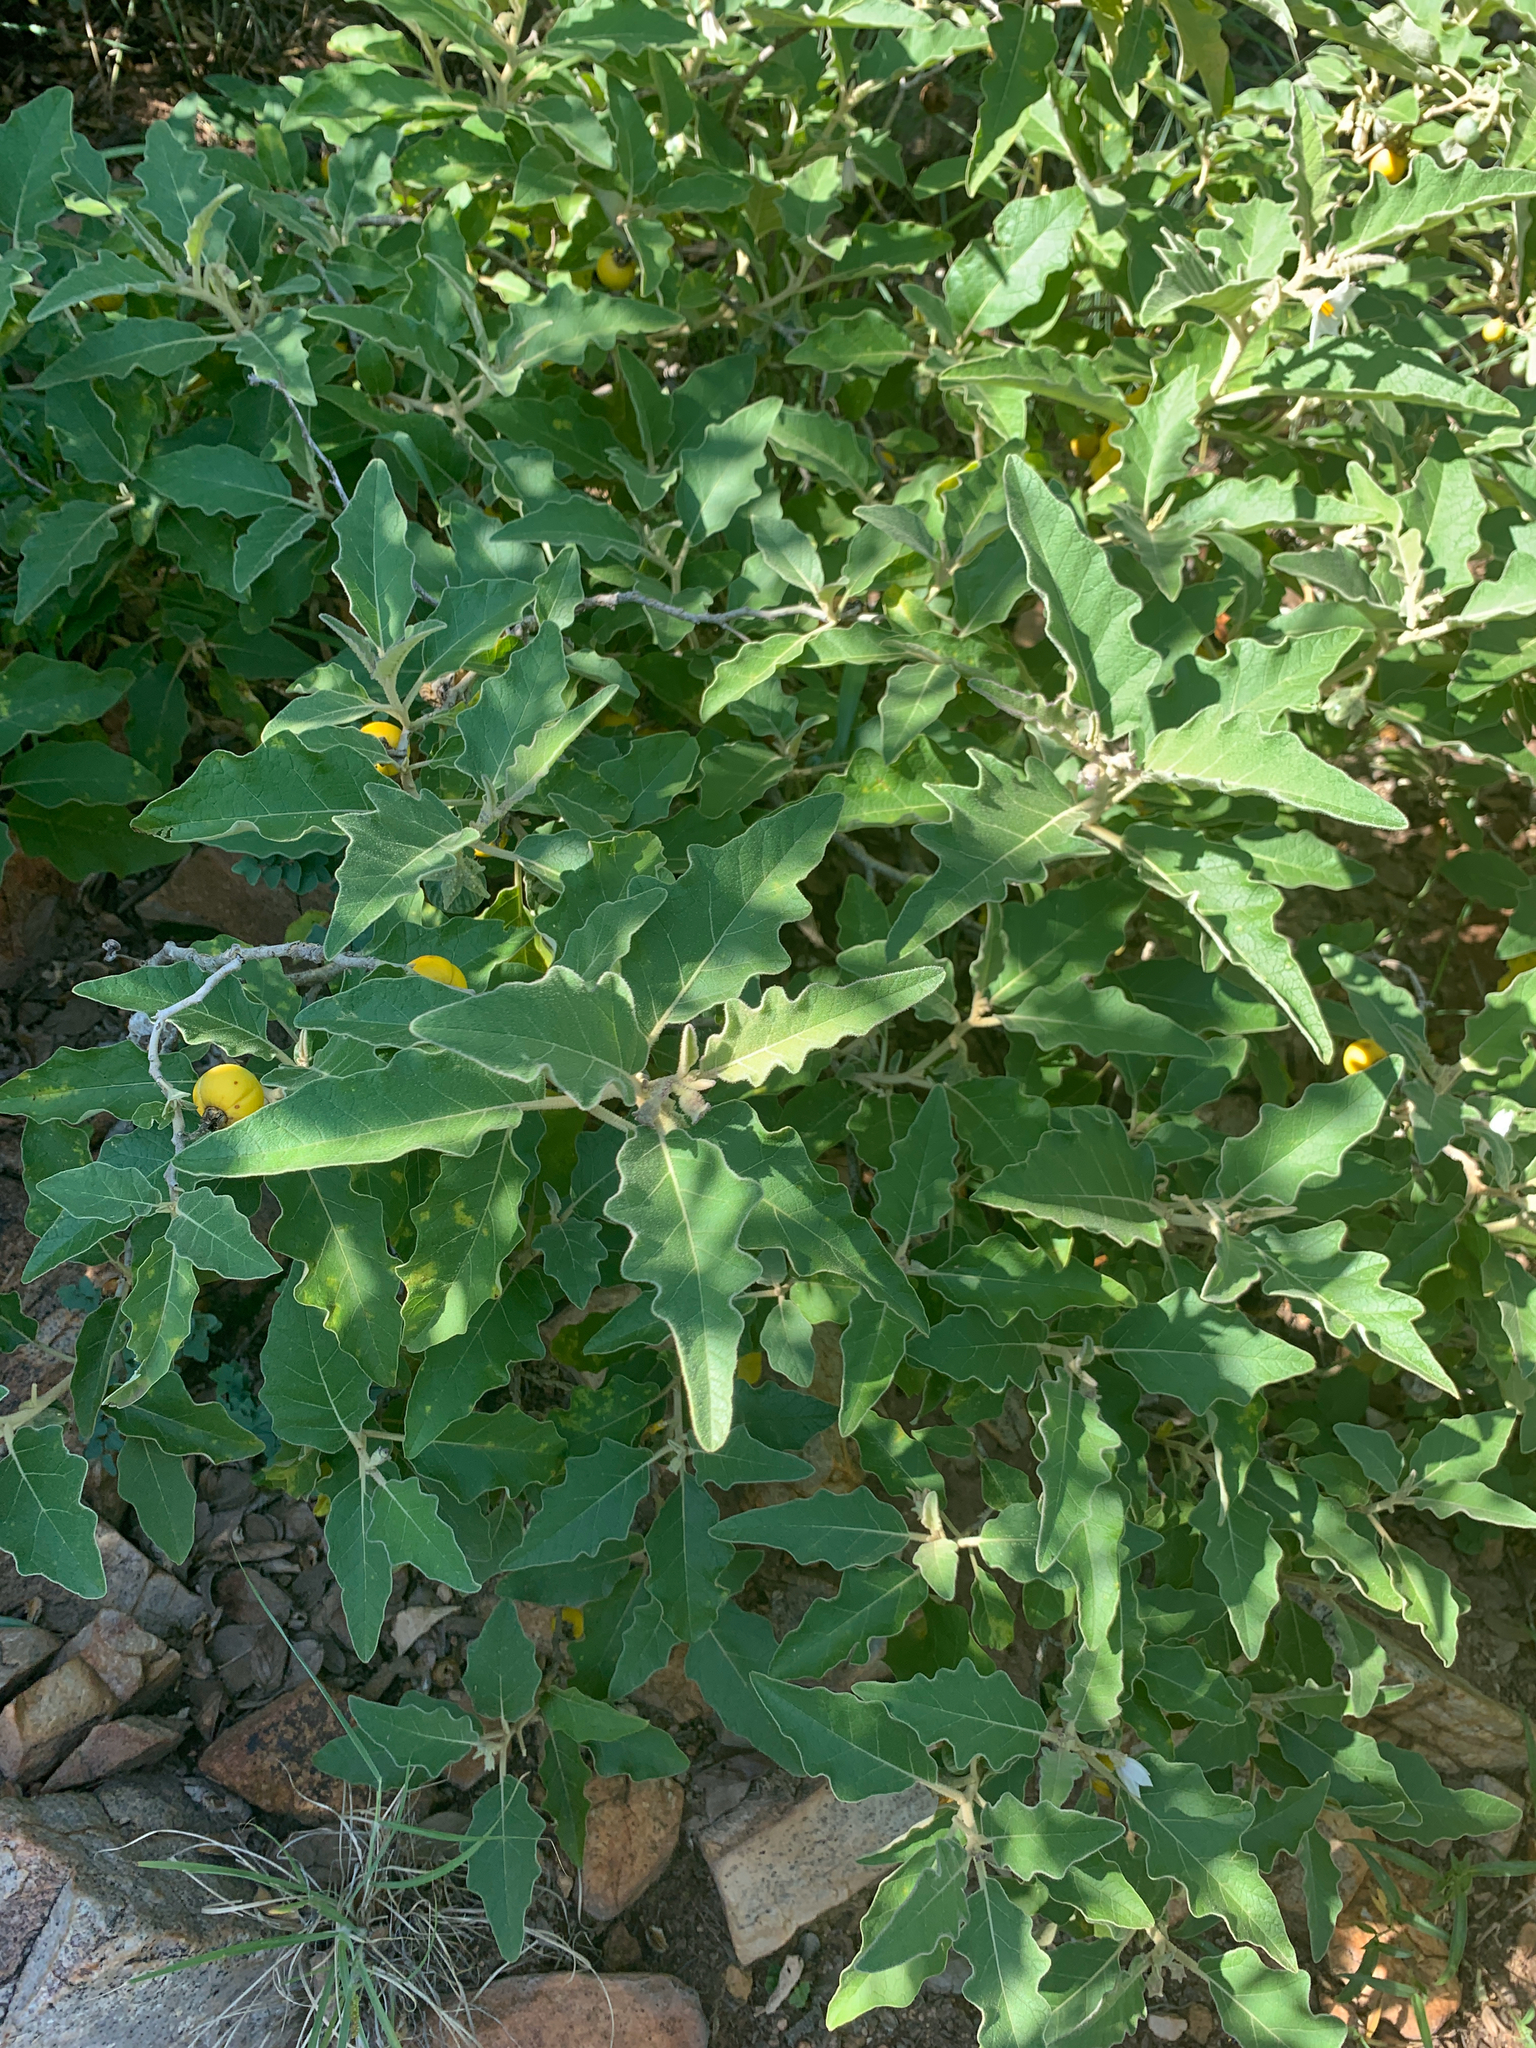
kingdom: Plantae
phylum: Tracheophyta
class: Magnoliopsida
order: Solanales
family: Solanaceae
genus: Solanum
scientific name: Solanum lichtensteinii
